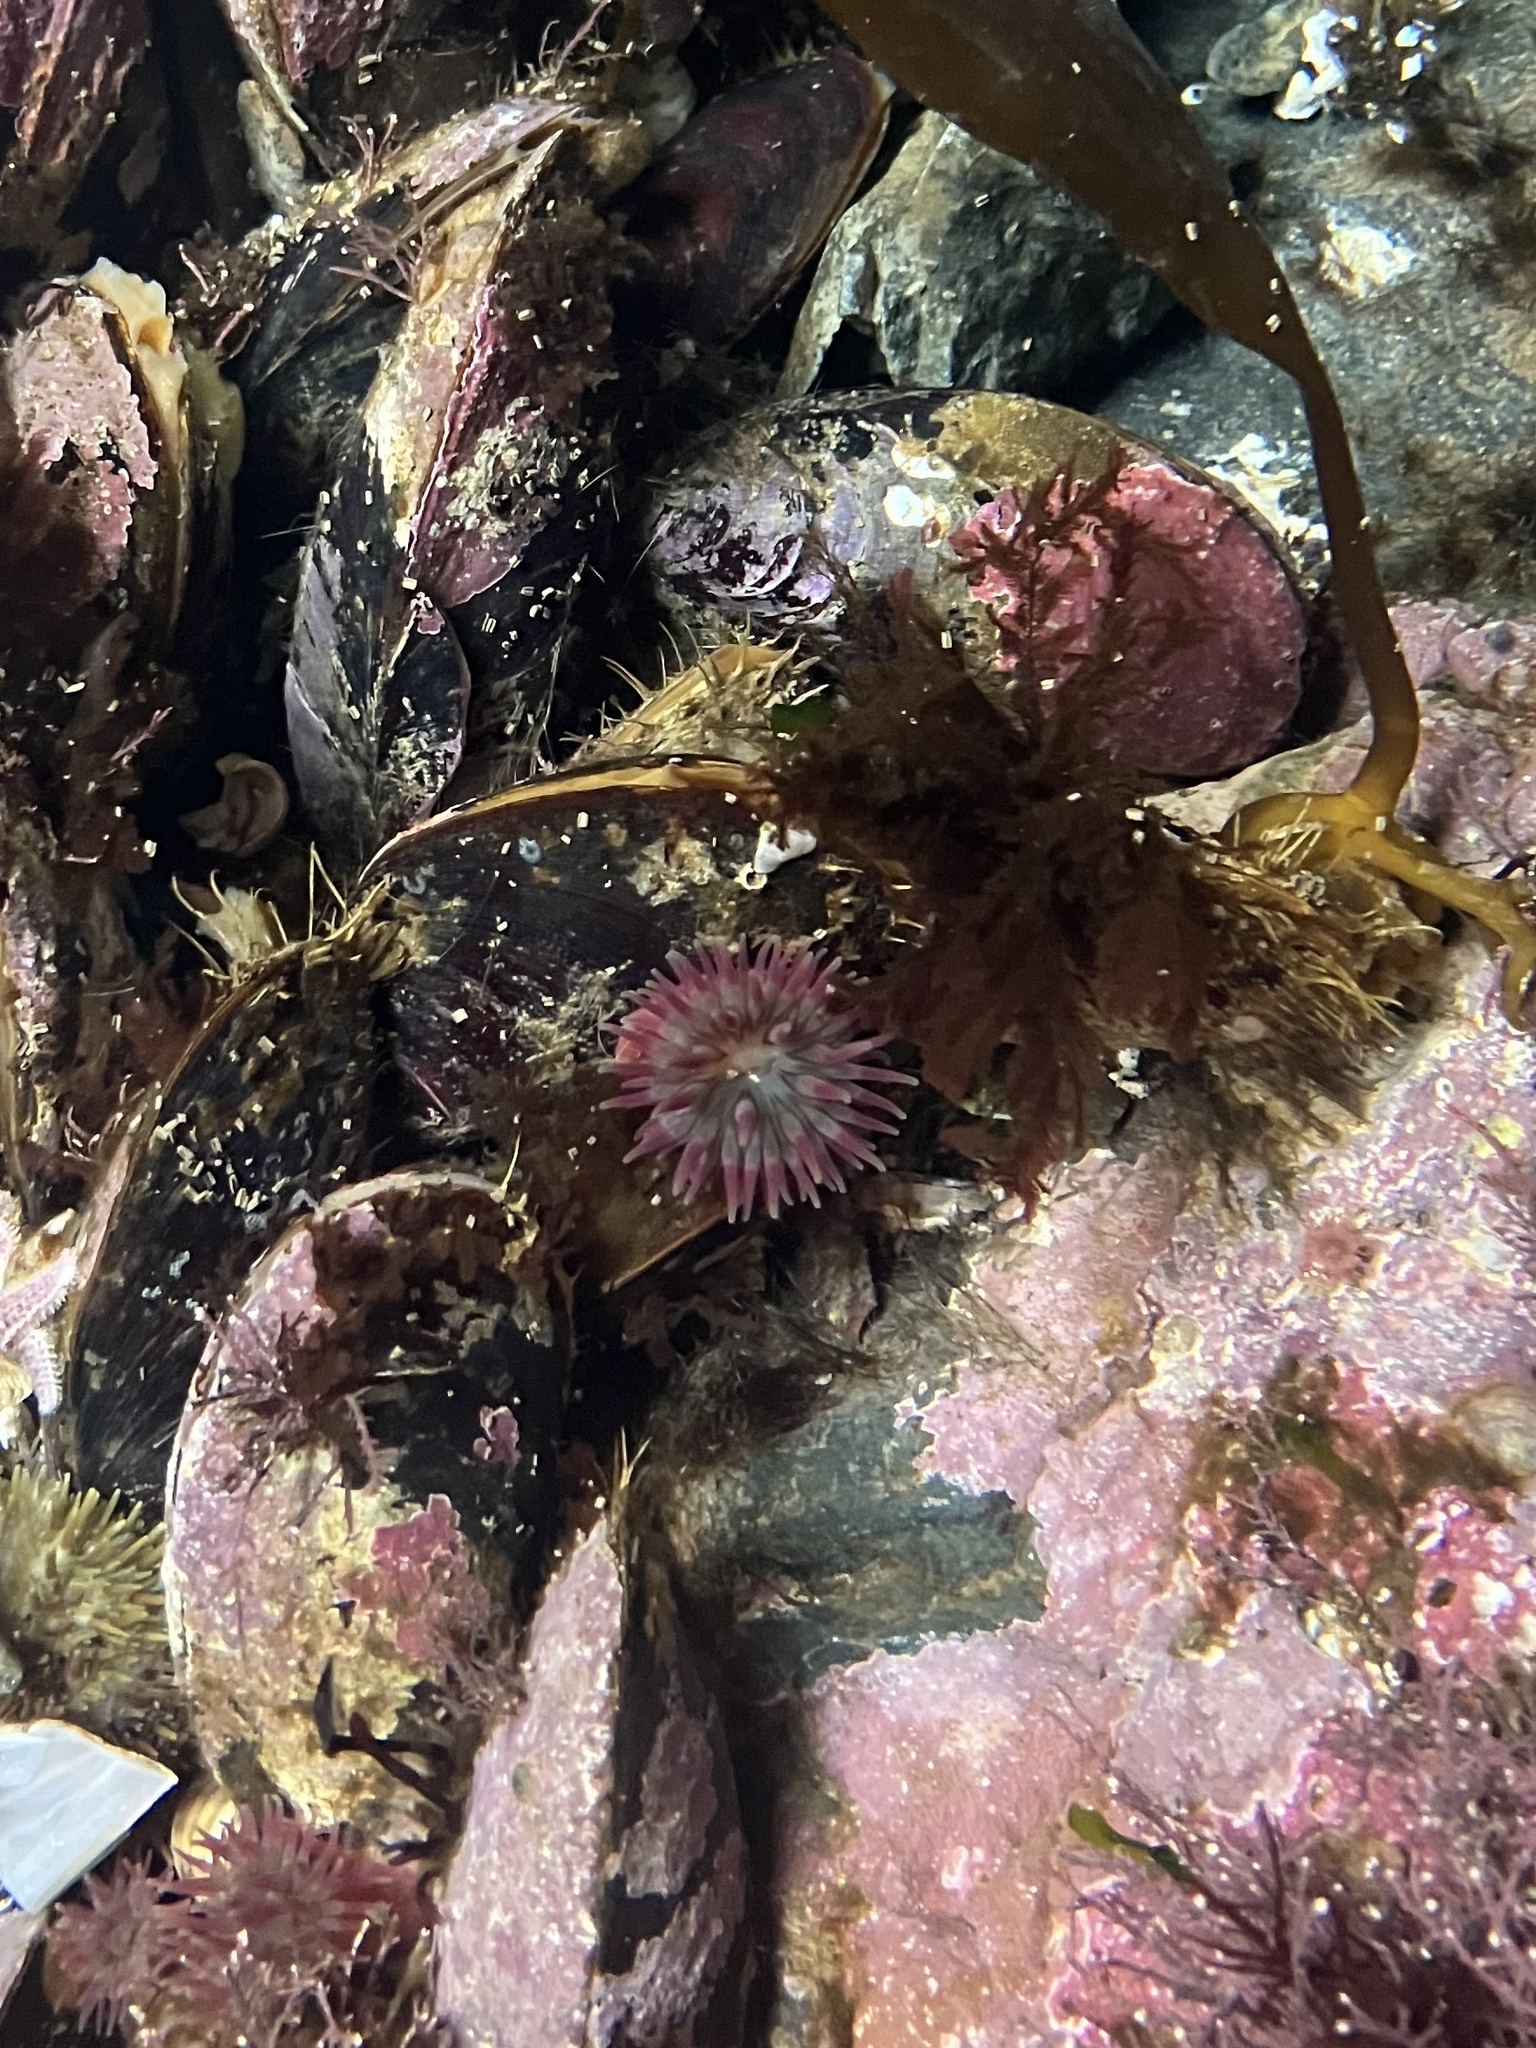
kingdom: Animalia
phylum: Cnidaria
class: Anthozoa
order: Actiniaria
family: Actiniidae
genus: Urticina
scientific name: Urticina crassicornis
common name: Mottled anemone
